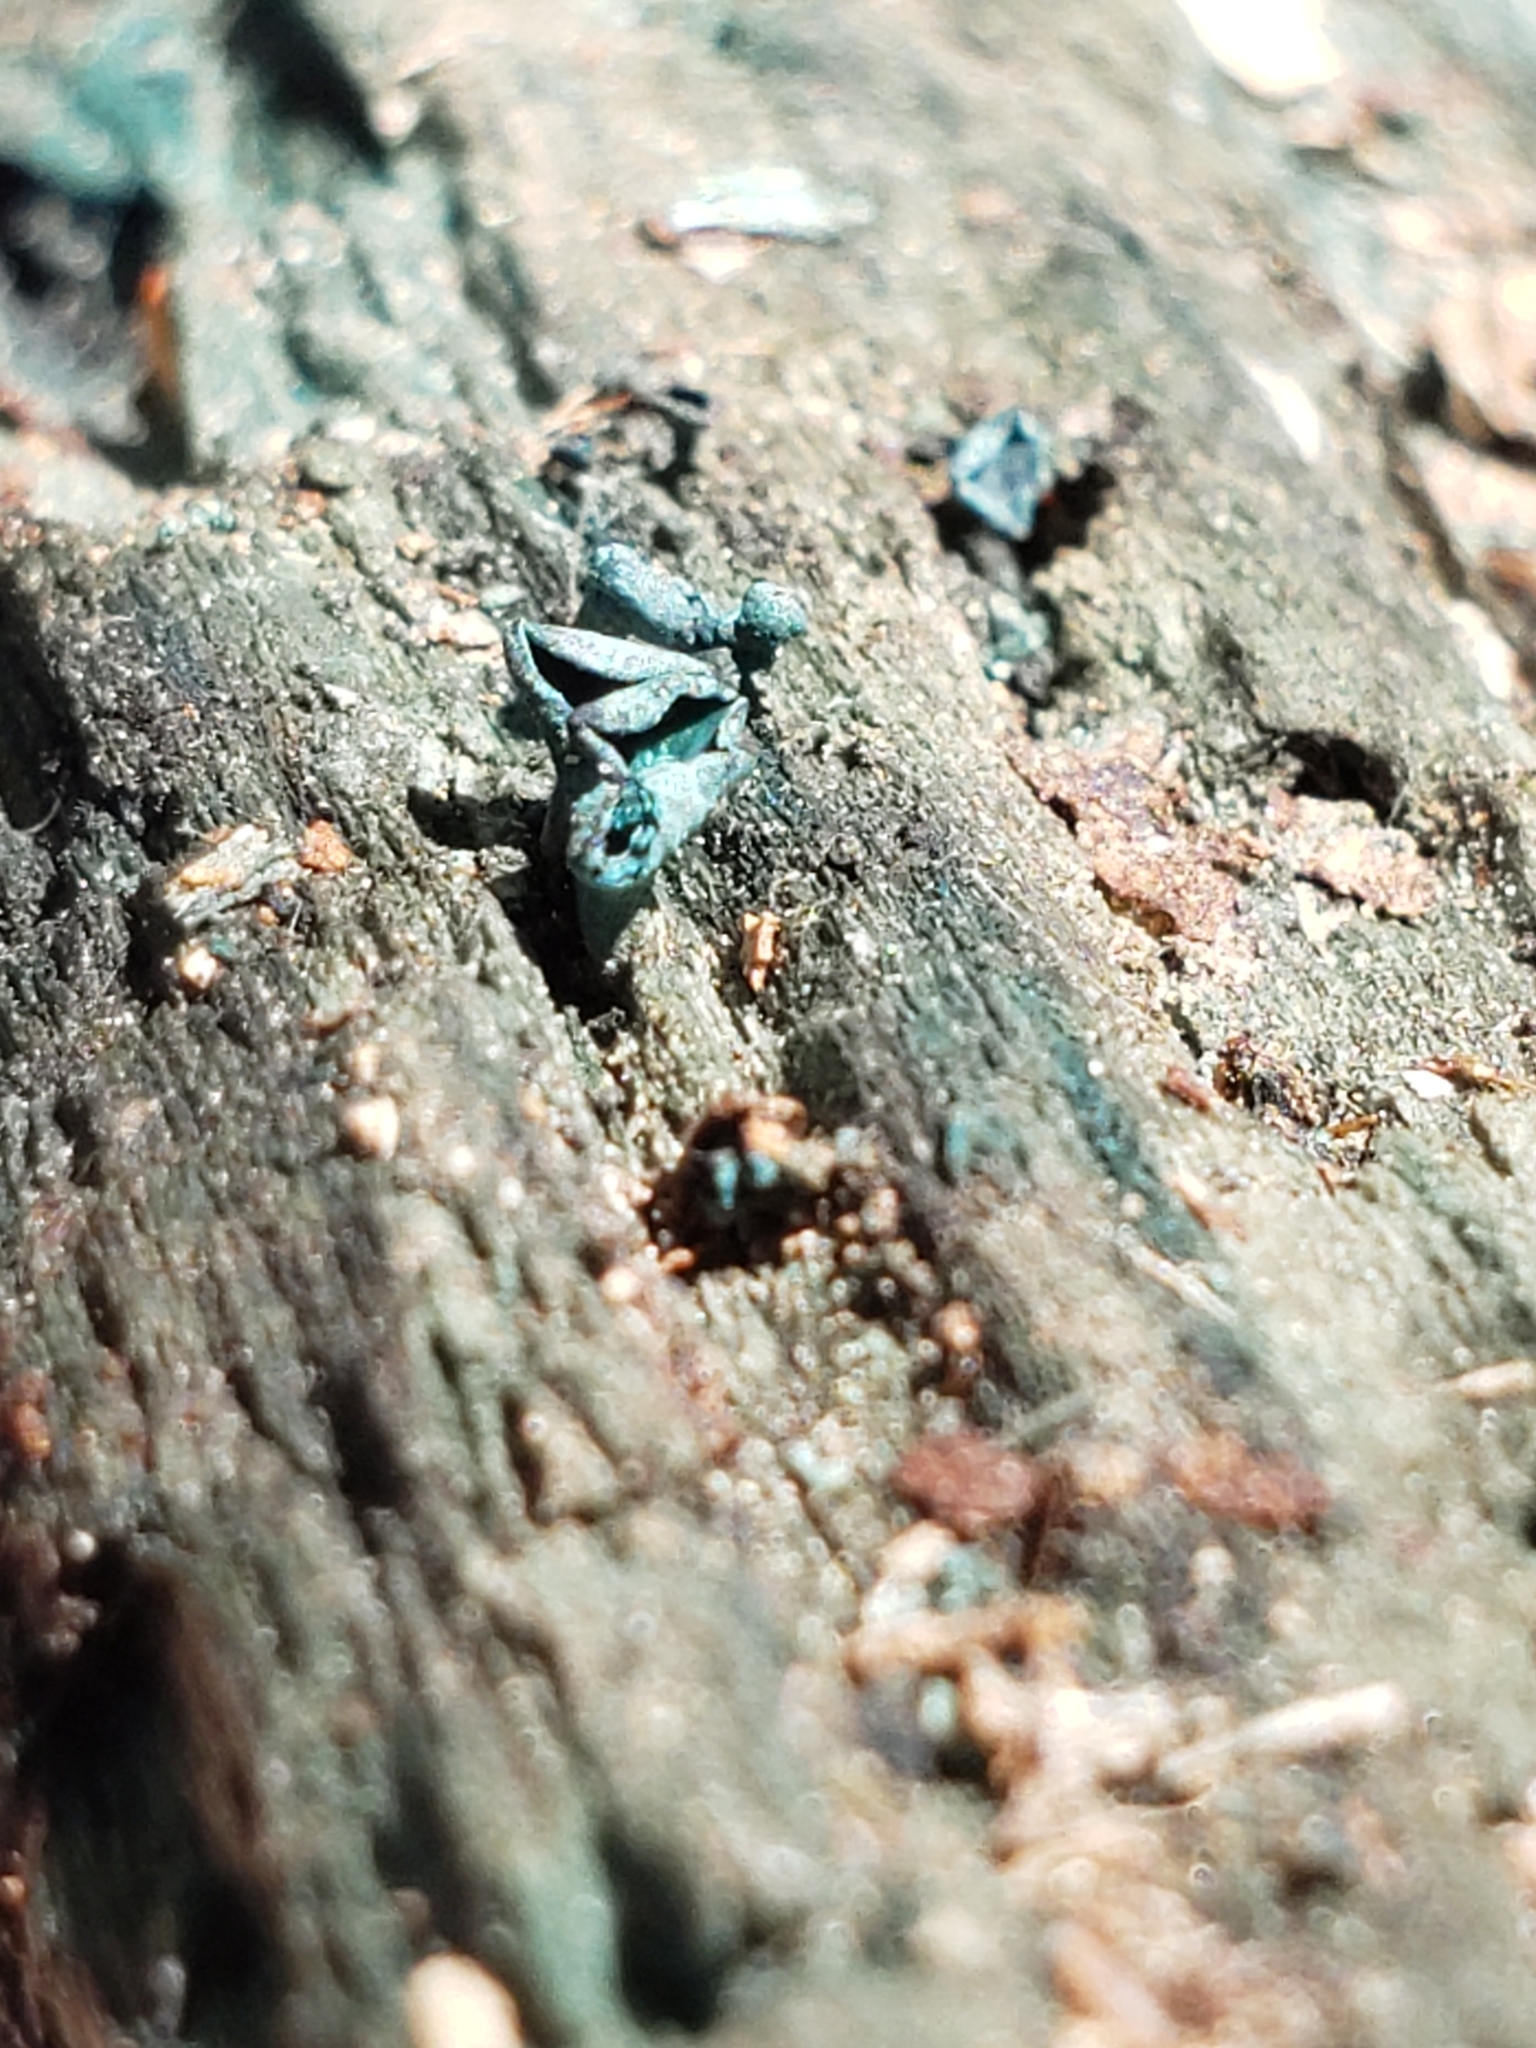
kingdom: Fungi
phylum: Ascomycota
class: Leotiomycetes
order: Helotiales
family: Chlorociboriaceae
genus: Chlorociboria
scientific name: Chlorociboria aeruginascens
